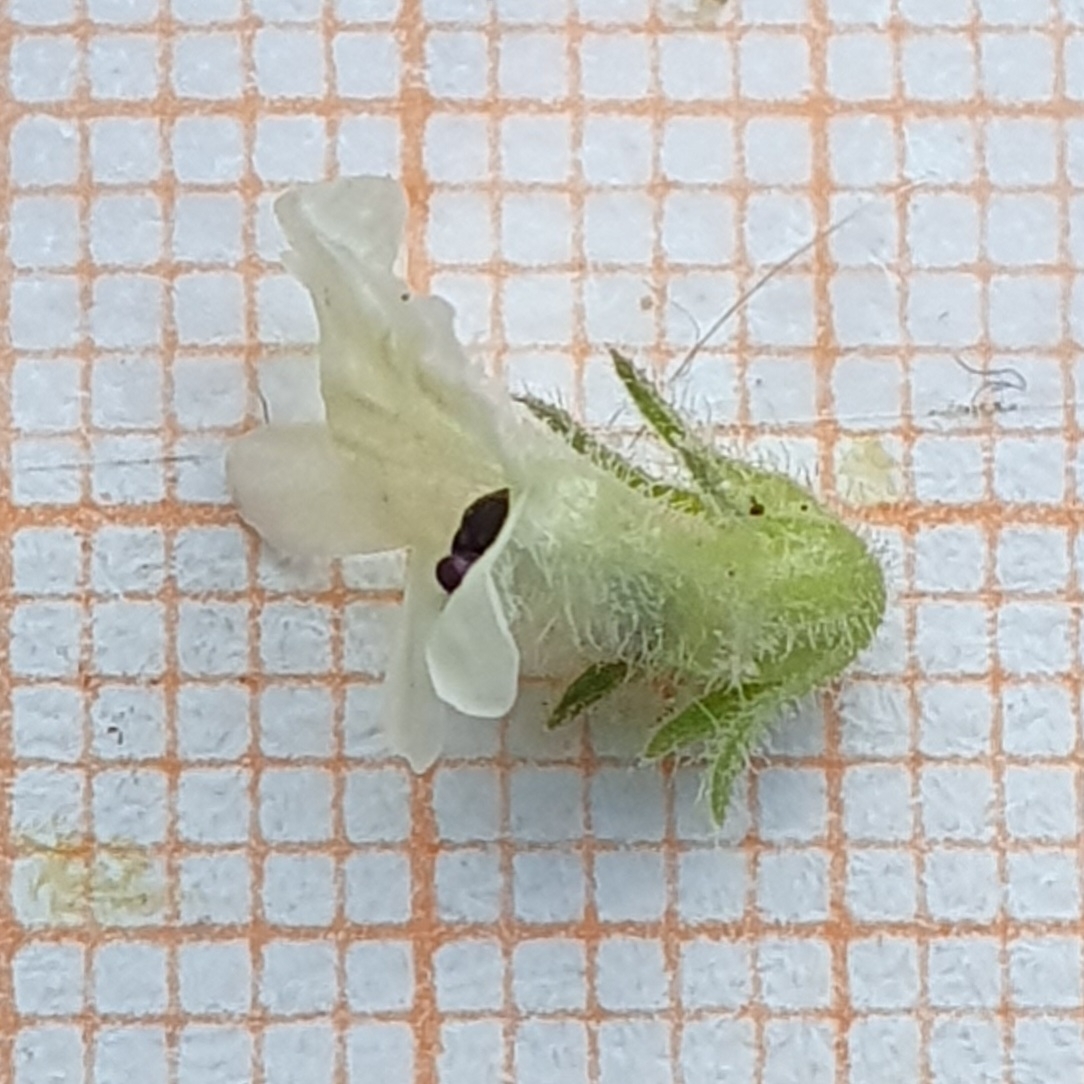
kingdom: Plantae
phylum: Tracheophyta
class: Magnoliopsida
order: Lamiales
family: Plantaginaceae
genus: Anarrhinum
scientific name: Anarrhinum pedatum
